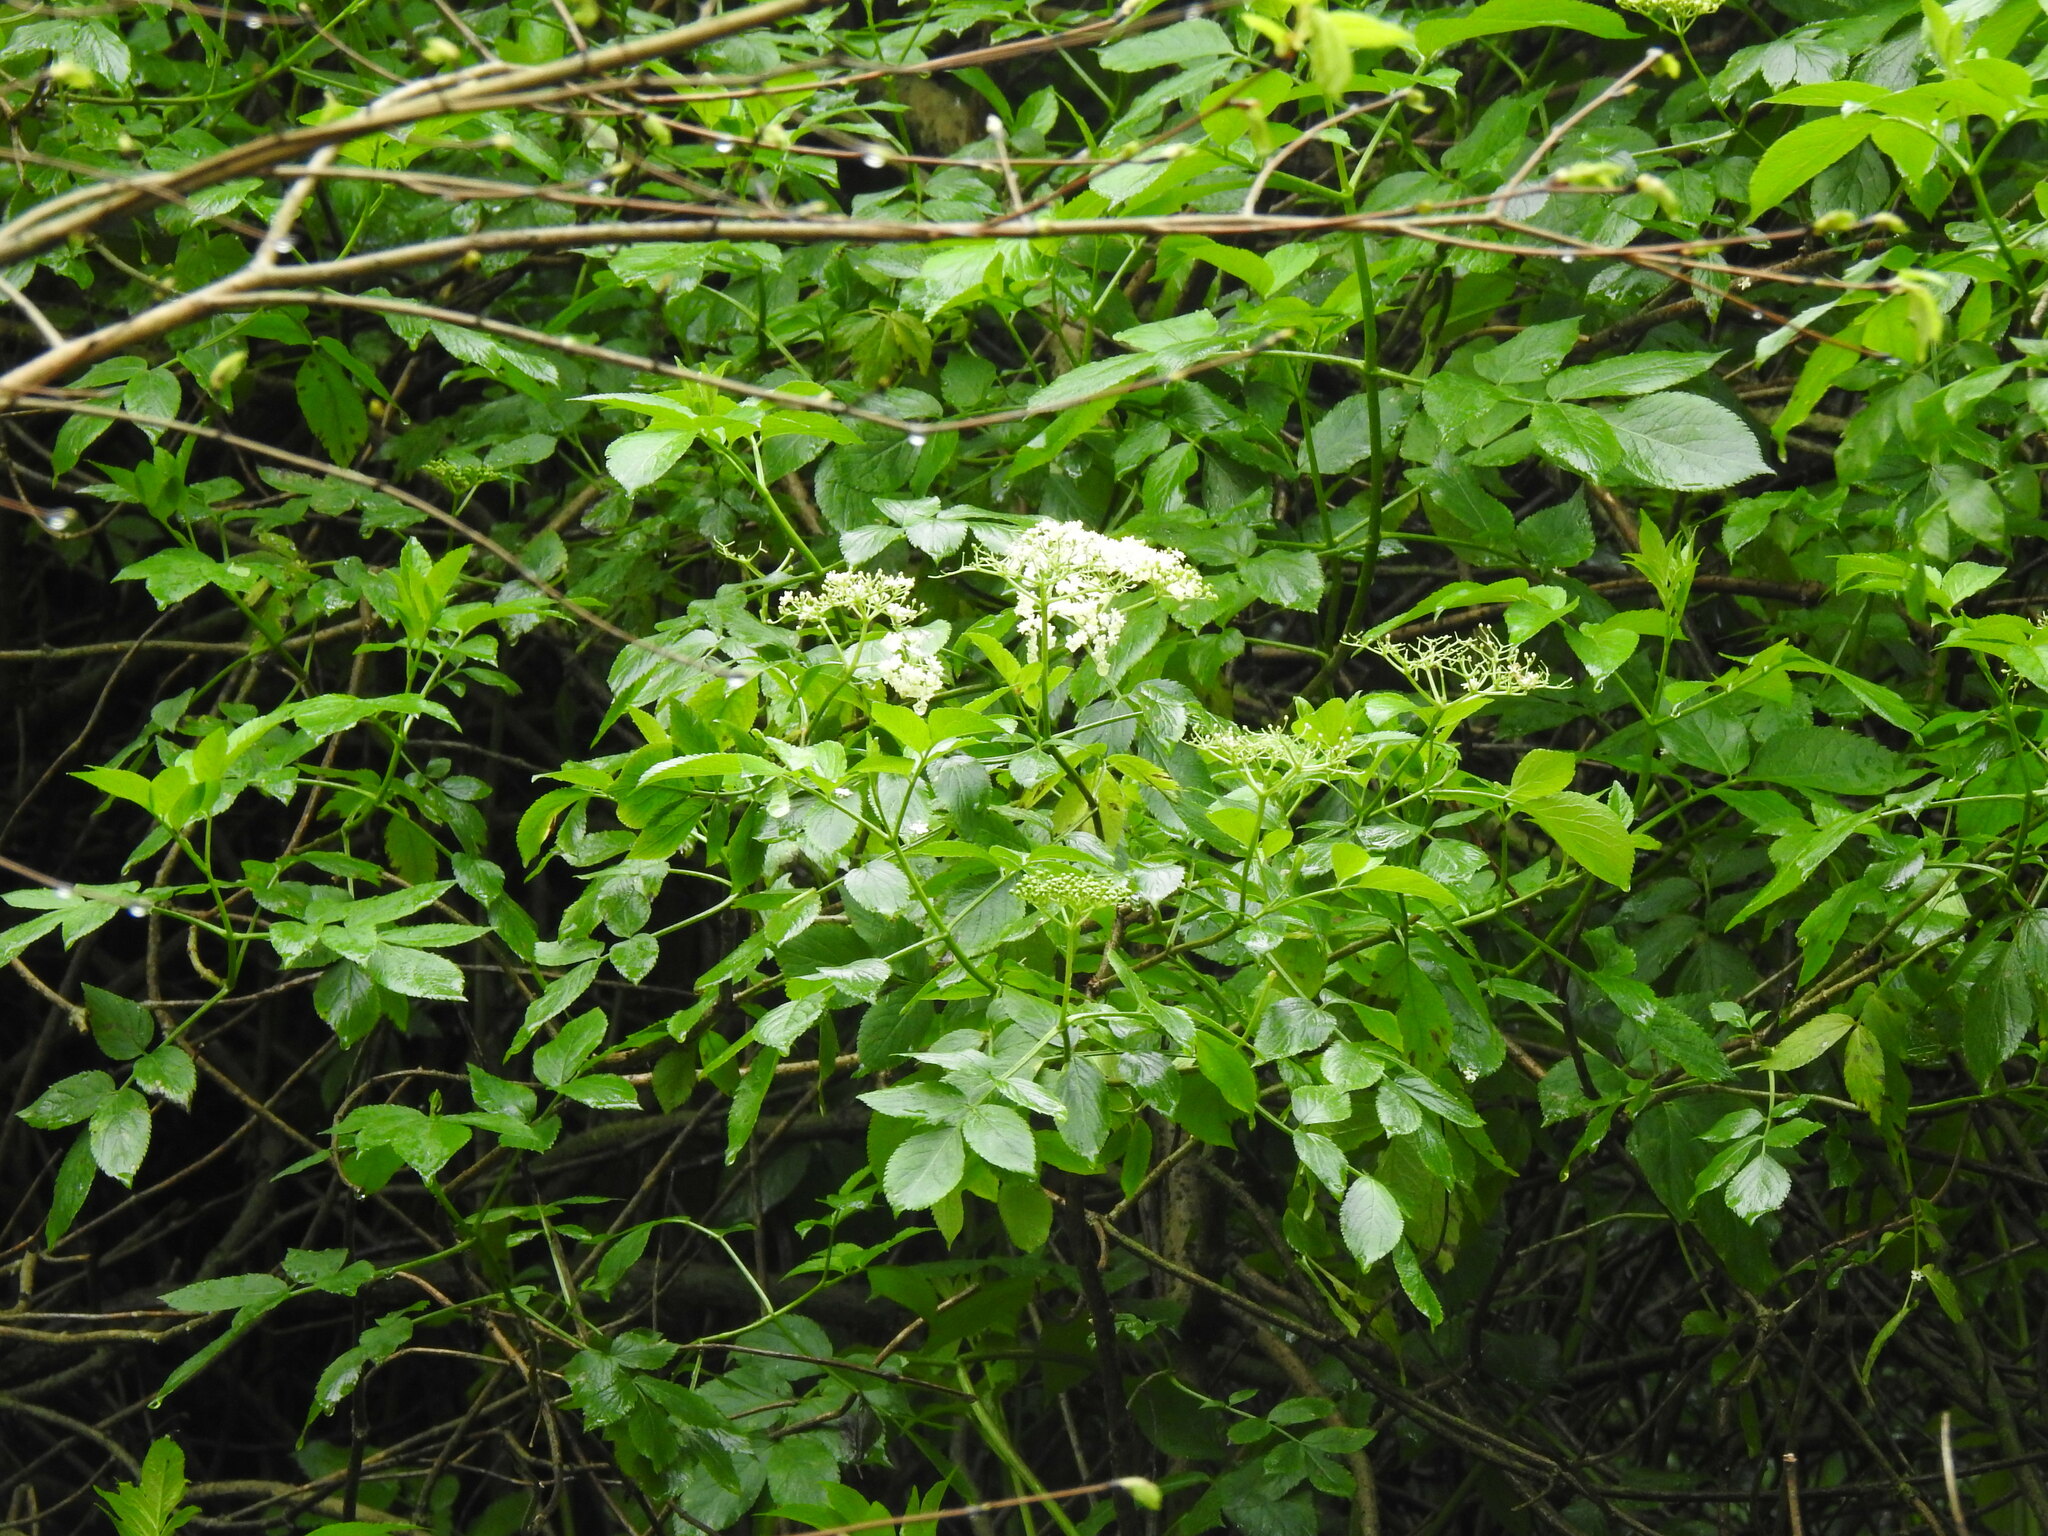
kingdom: Plantae
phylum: Tracheophyta
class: Magnoliopsida
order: Dipsacales
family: Viburnaceae
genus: Sambucus
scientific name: Sambucus nigra
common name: Elder
